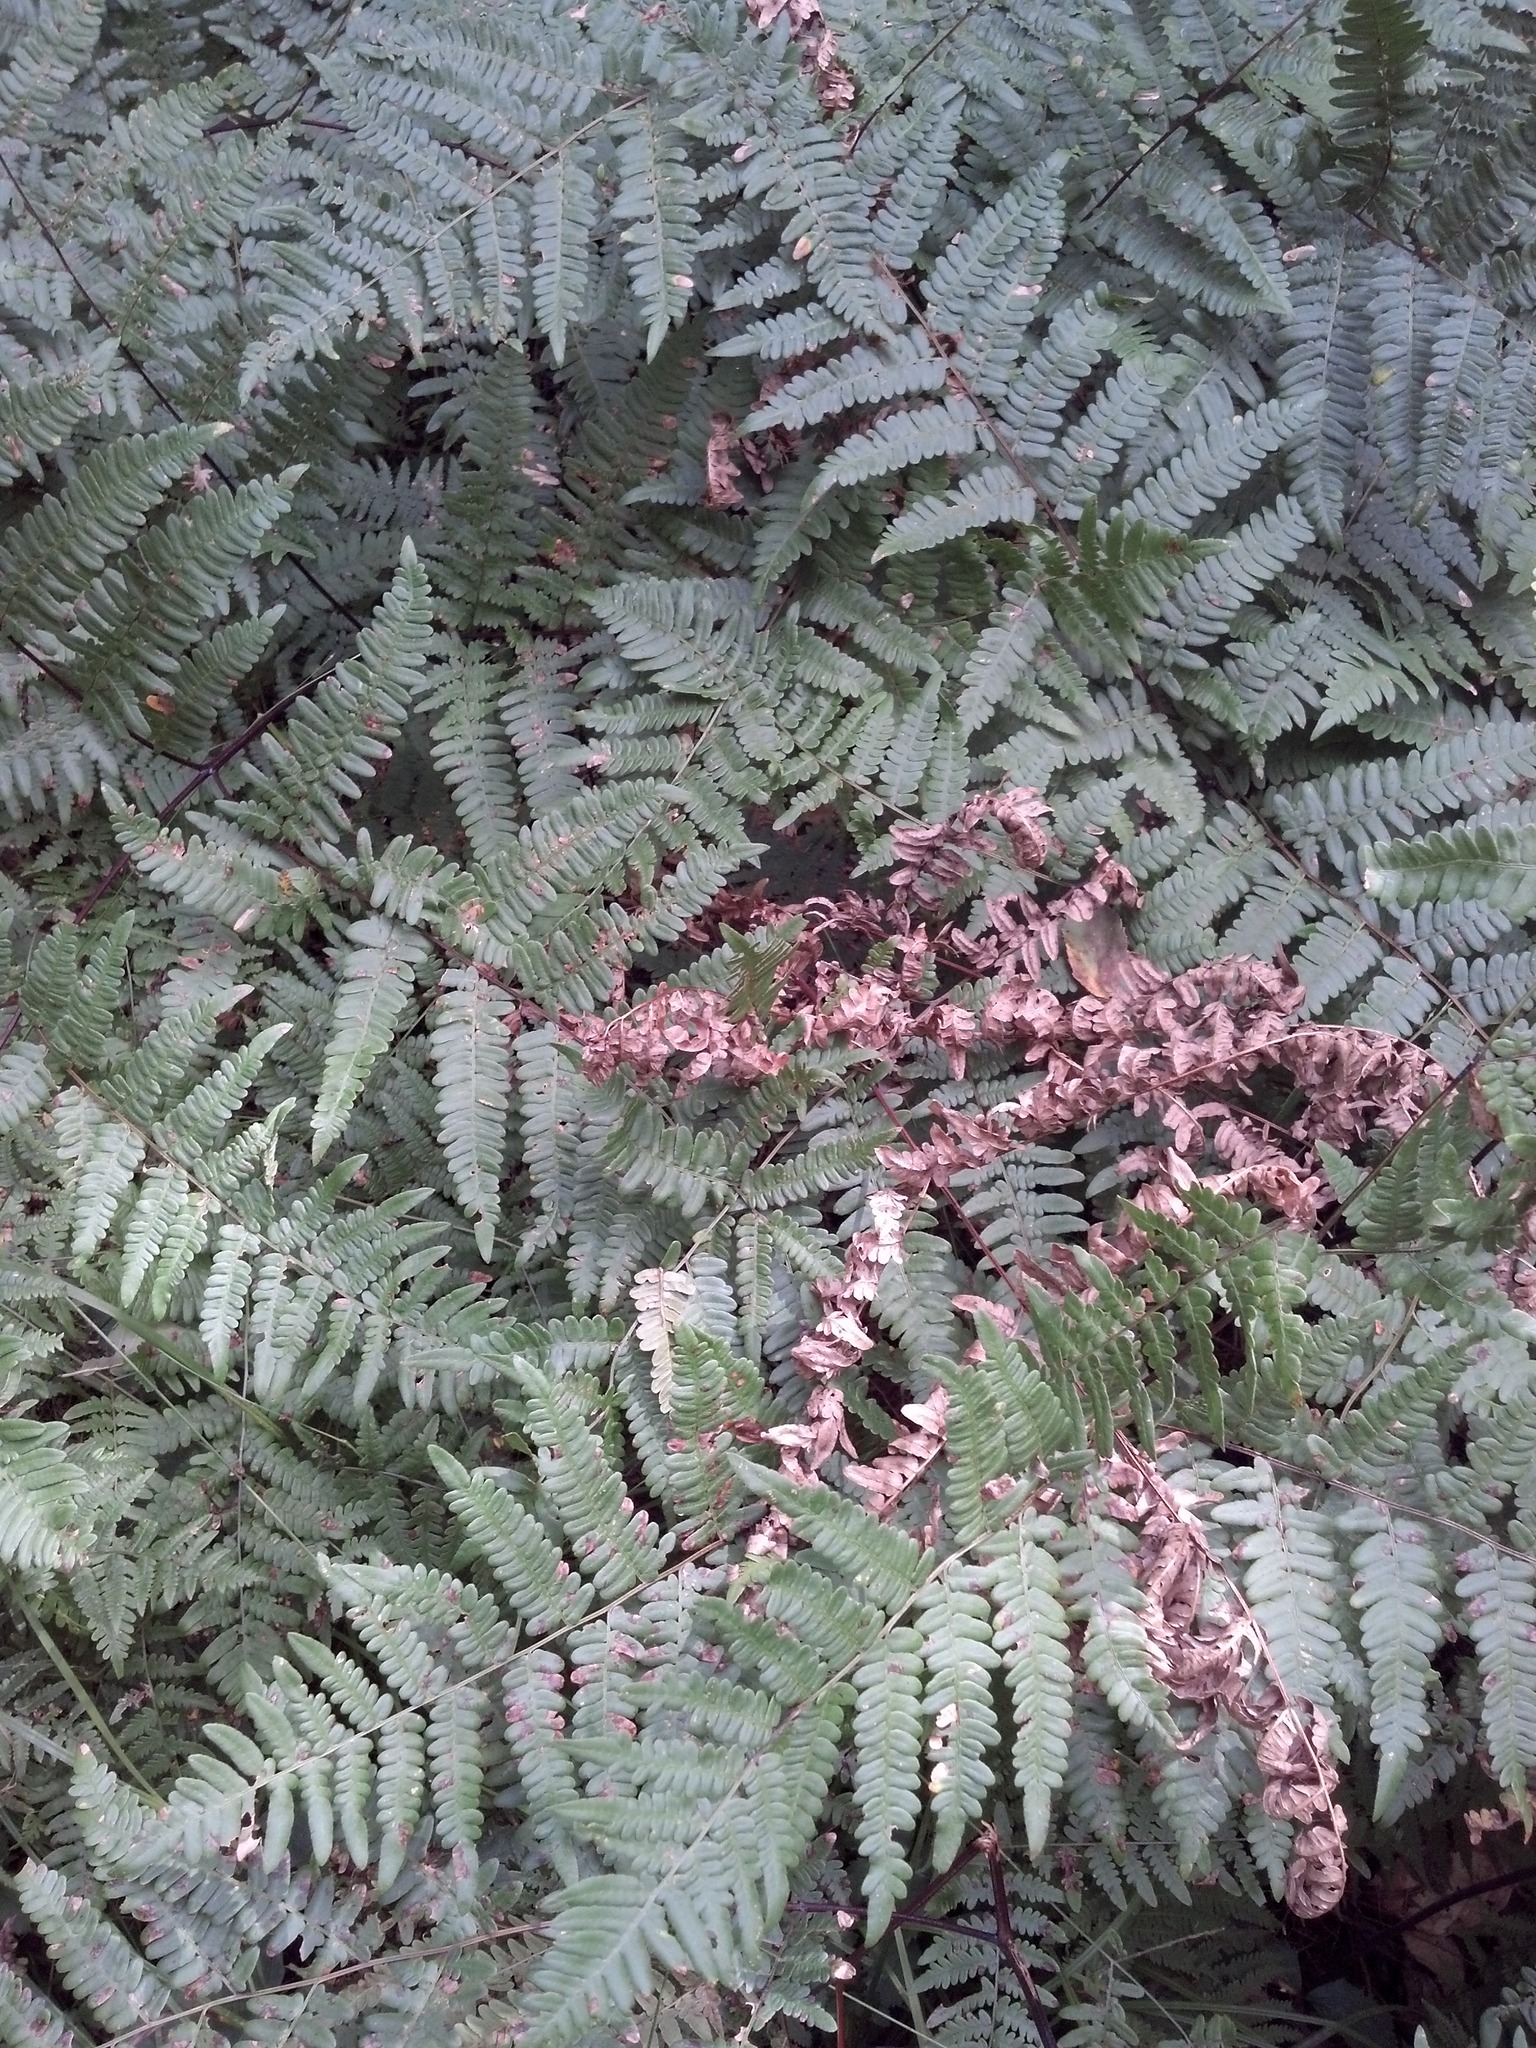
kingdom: Plantae
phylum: Tracheophyta
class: Polypodiopsida
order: Polypodiales
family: Dennstaedtiaceae
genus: Pteridium
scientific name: Pteridium aquilinum
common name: Bracken
